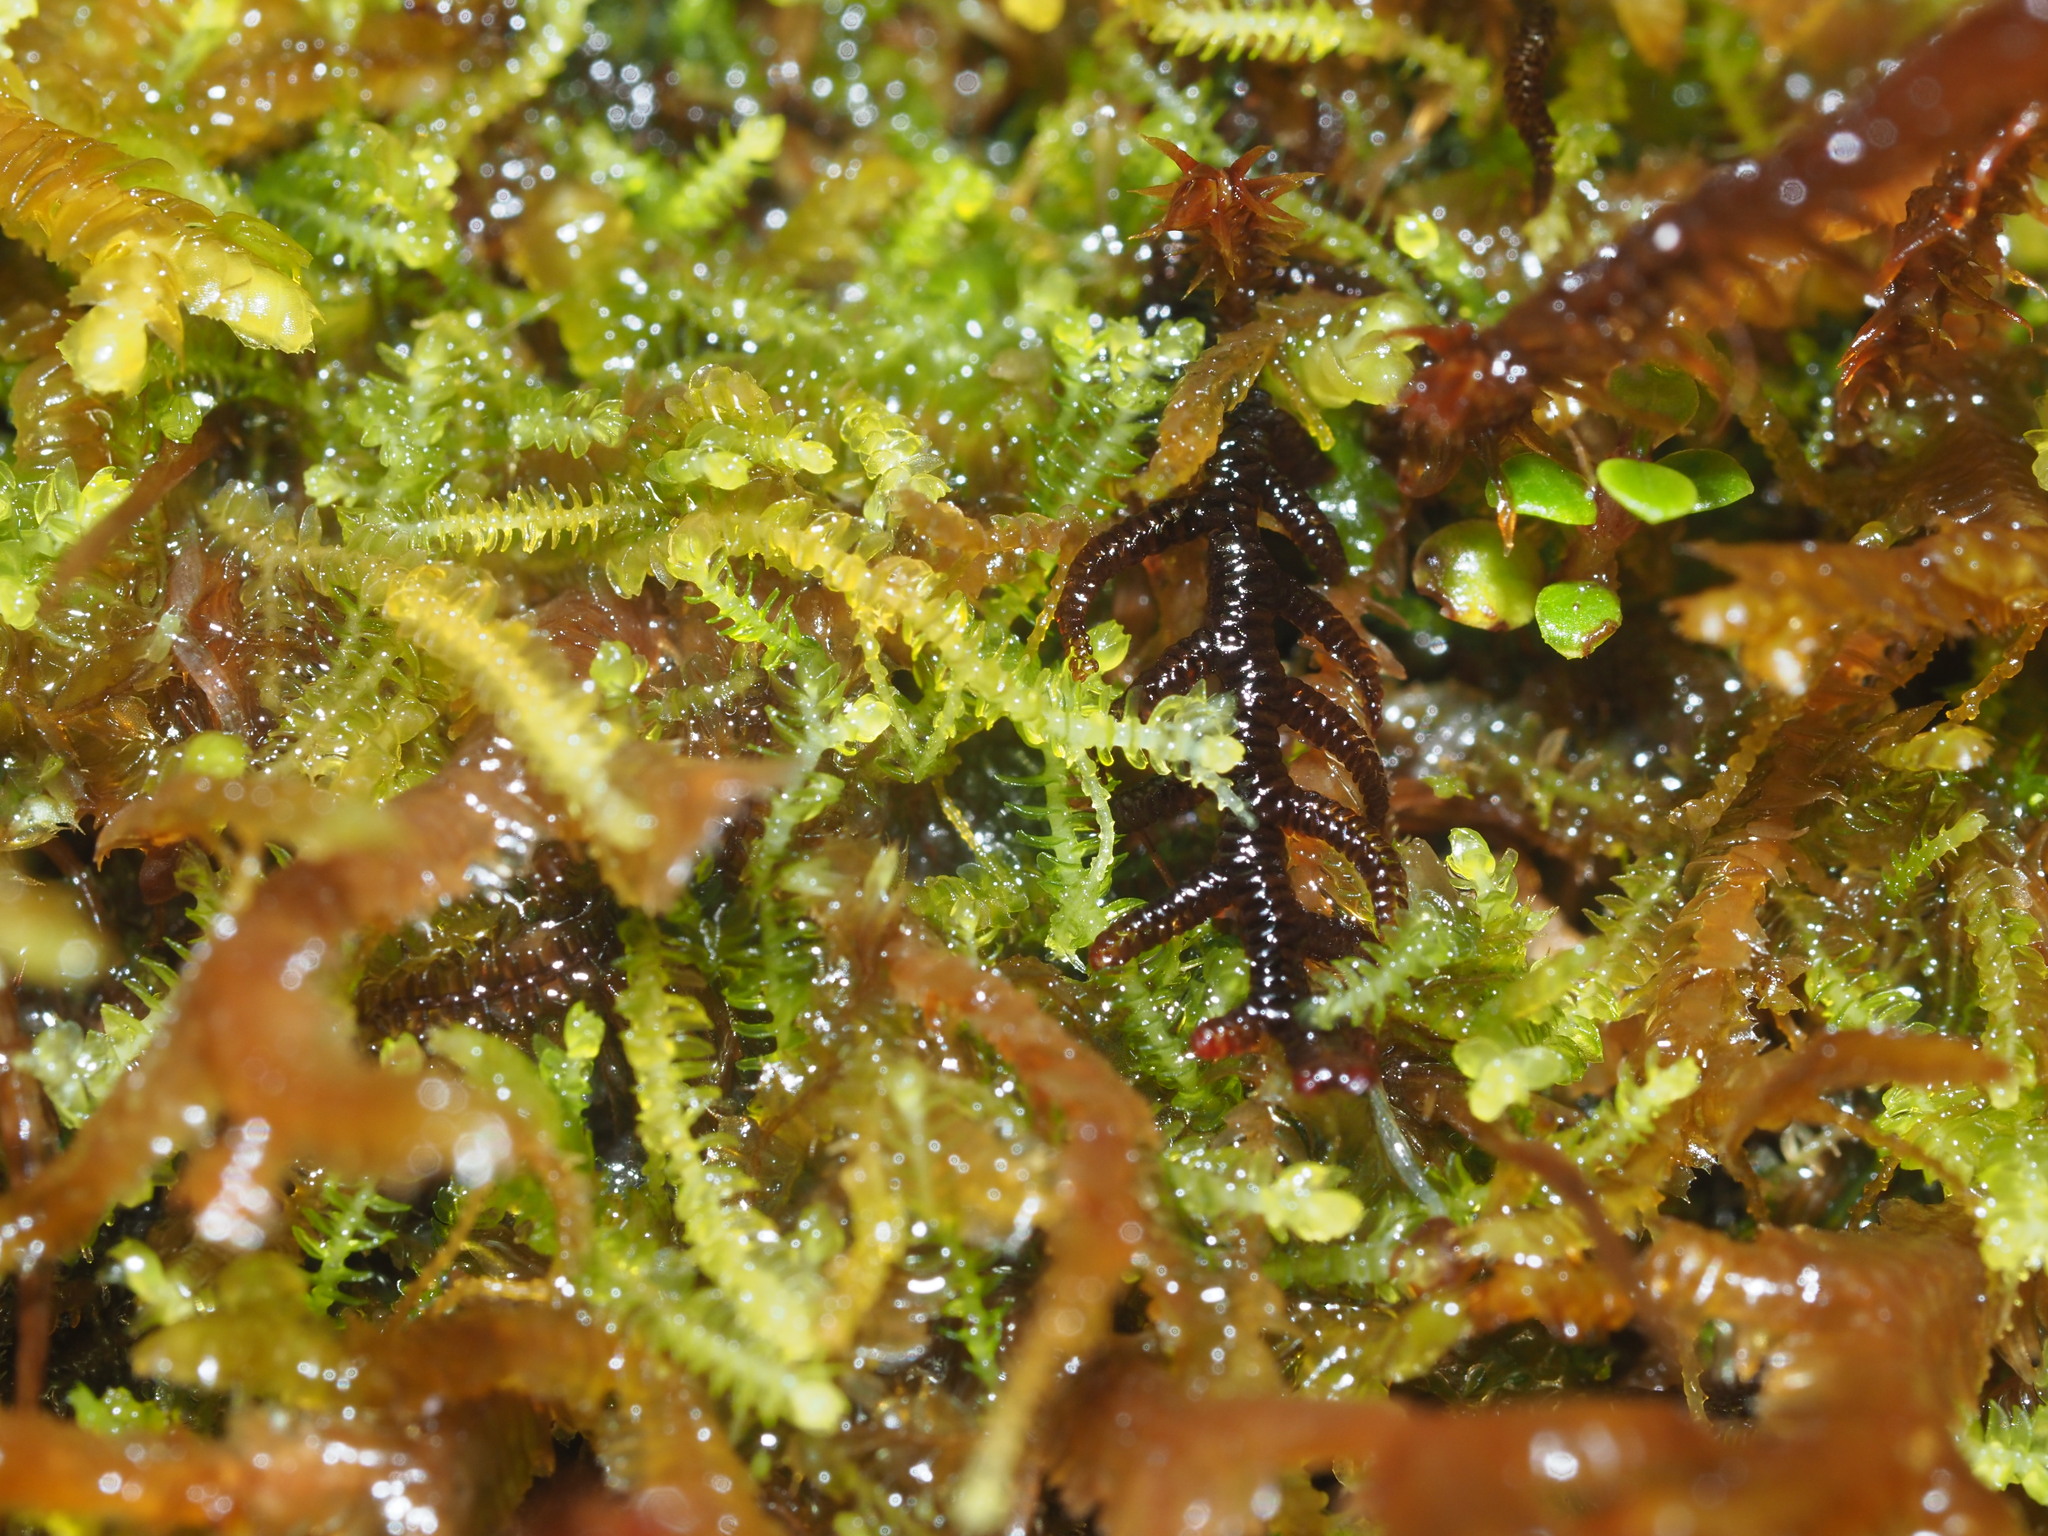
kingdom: Plantae
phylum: Marchantiophyta
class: Jungermanniopsida
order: Jungermanniales
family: Lepidoziaceae
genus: Acromastigum
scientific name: Acromastigum integrifolium
